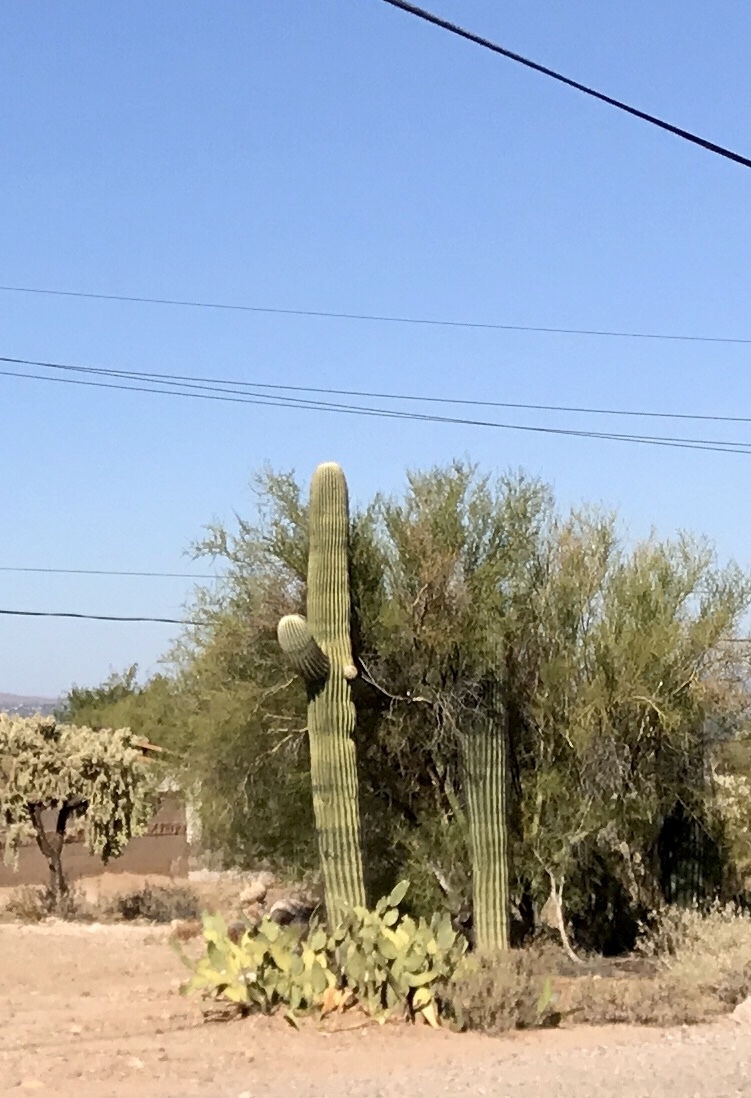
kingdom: Plantae
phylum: Tracheophyta
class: Magnoliopsida
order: Caryophyllales
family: Cactaceae
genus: Carnegiea
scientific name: Carnegiea gigantea
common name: Saguaro
